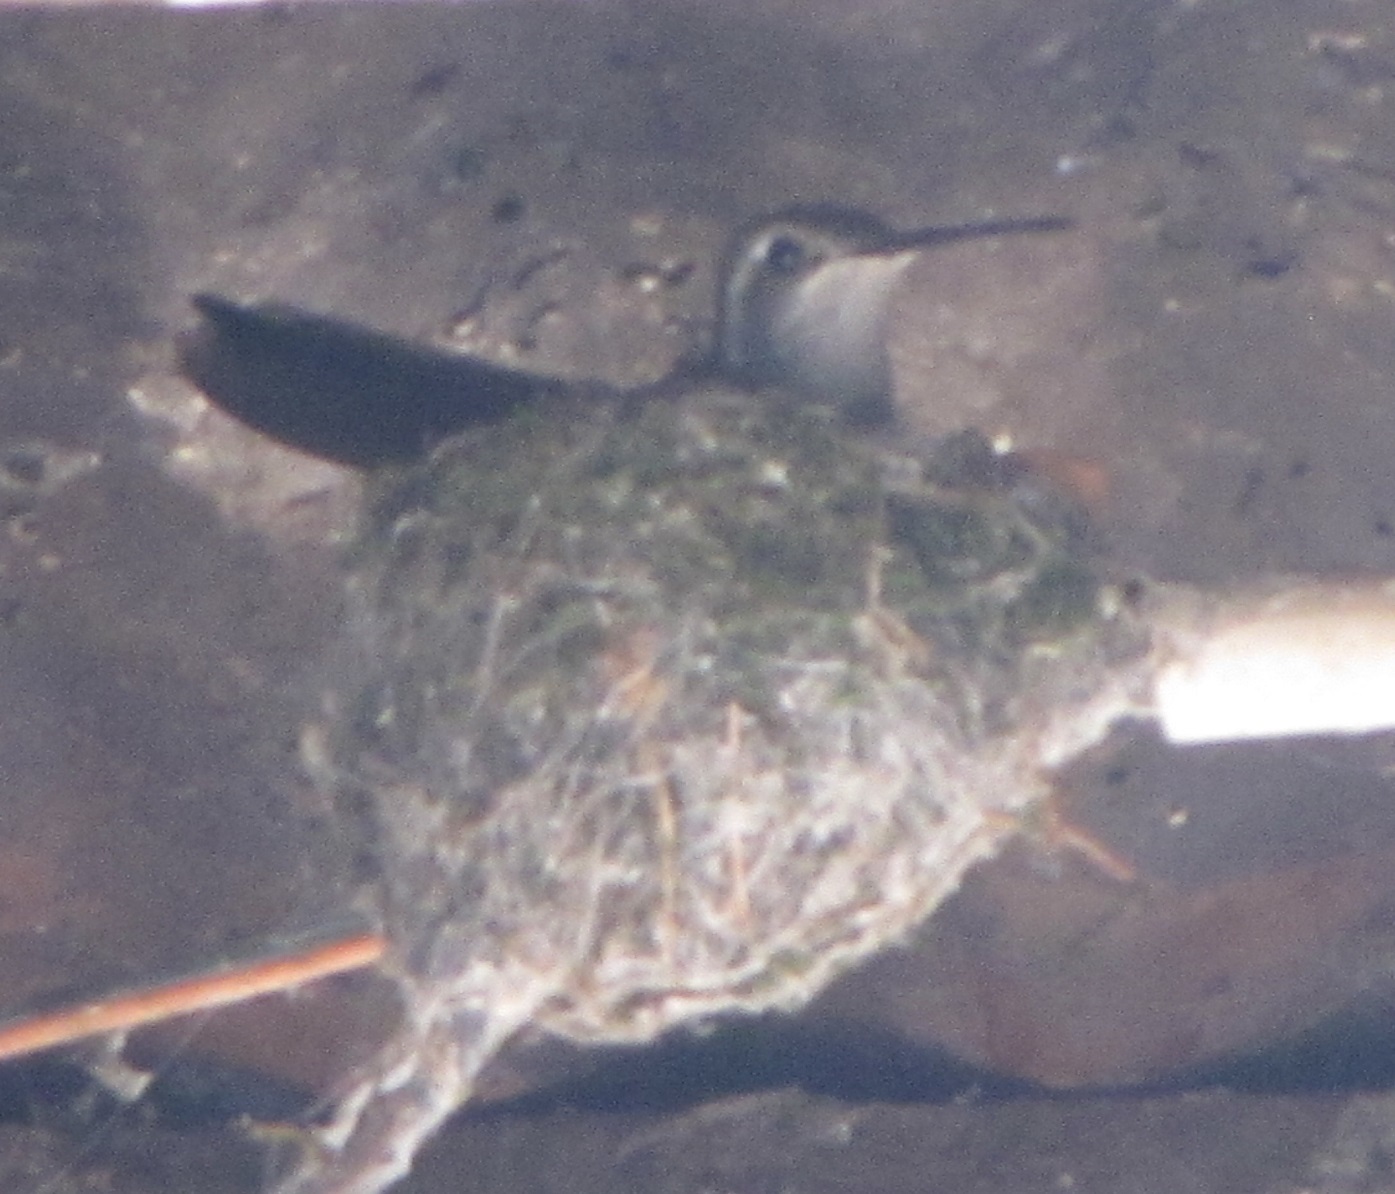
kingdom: Animalia
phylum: Chordata
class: Aves
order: Apodiformes
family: Trochilidae
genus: Lampornis
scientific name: Lampornis clemenciae
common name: Blue-throated mountaingem
